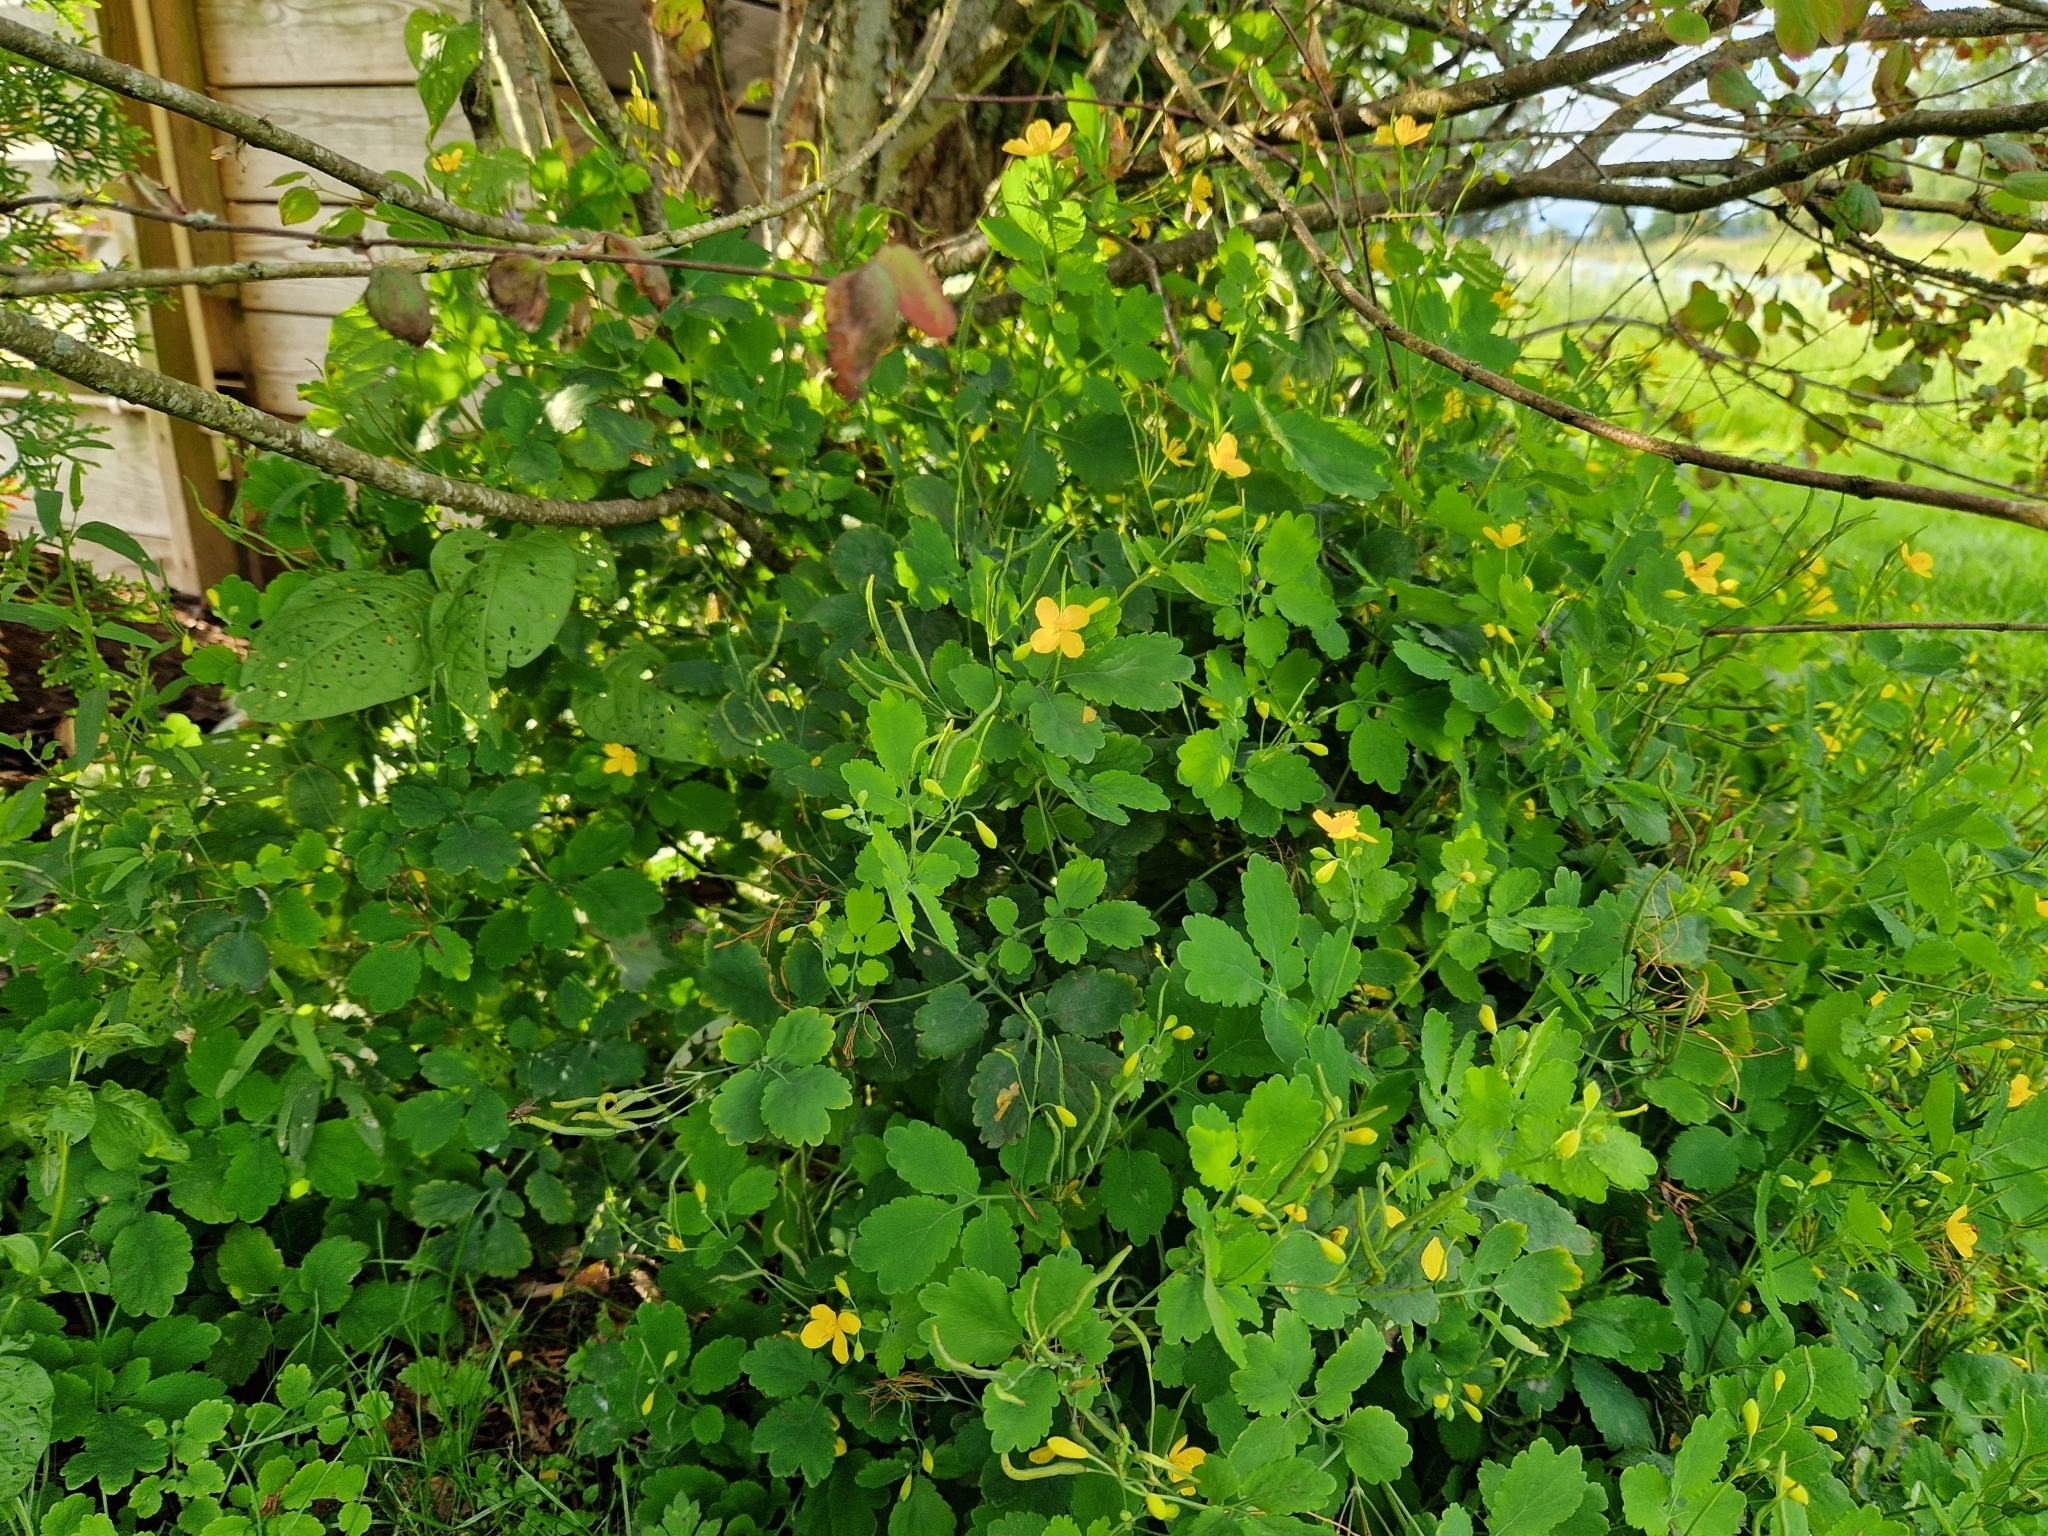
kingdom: Plantae
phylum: Tracheophyta
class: Magnoliopsida
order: Ranunculales
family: Papaveraceae
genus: Chelidonium
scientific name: Chelidonium majus
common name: Greater celandine
